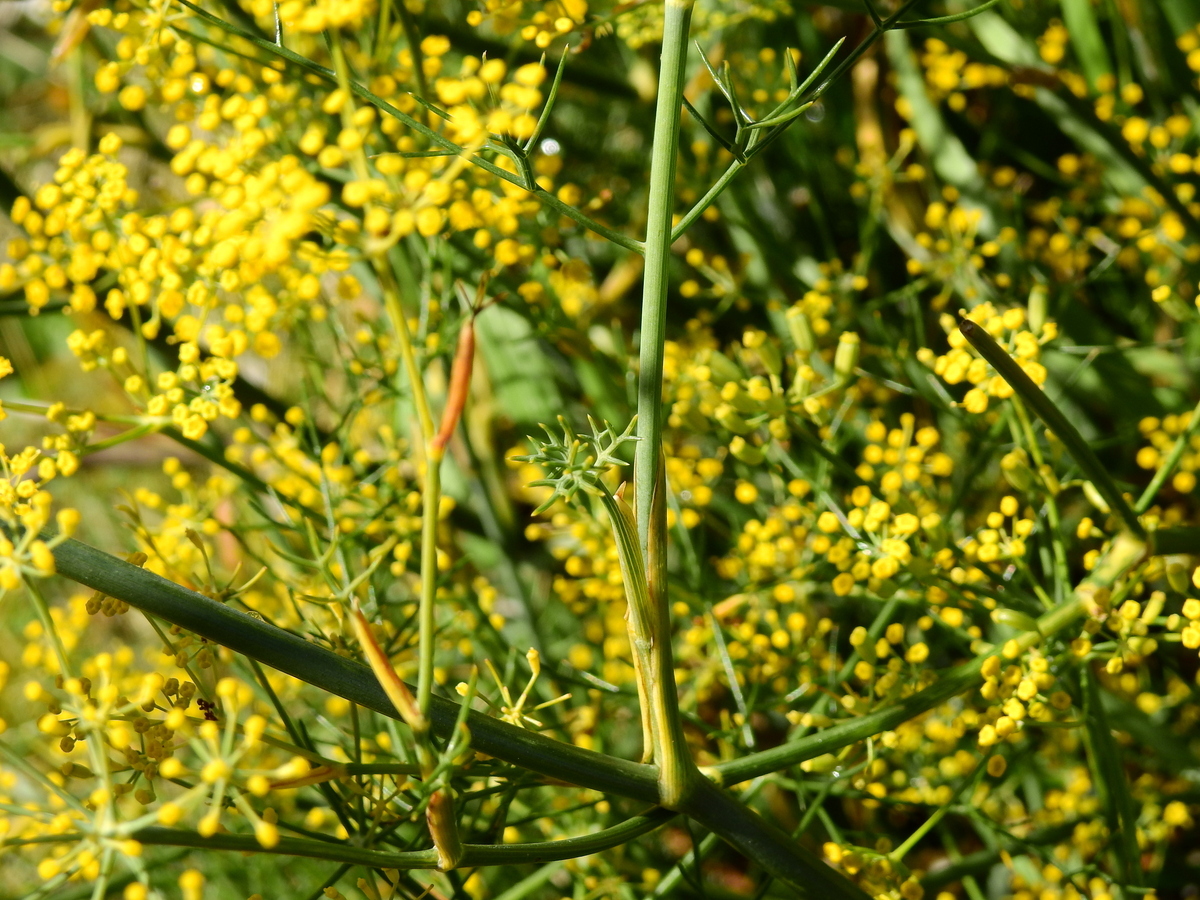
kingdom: Plantae
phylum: Tracheophyta
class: Magnoliopsida
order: Apiales
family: Apiaceae
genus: Foeniculum
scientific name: Foeniculum vulgare
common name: Fennel
